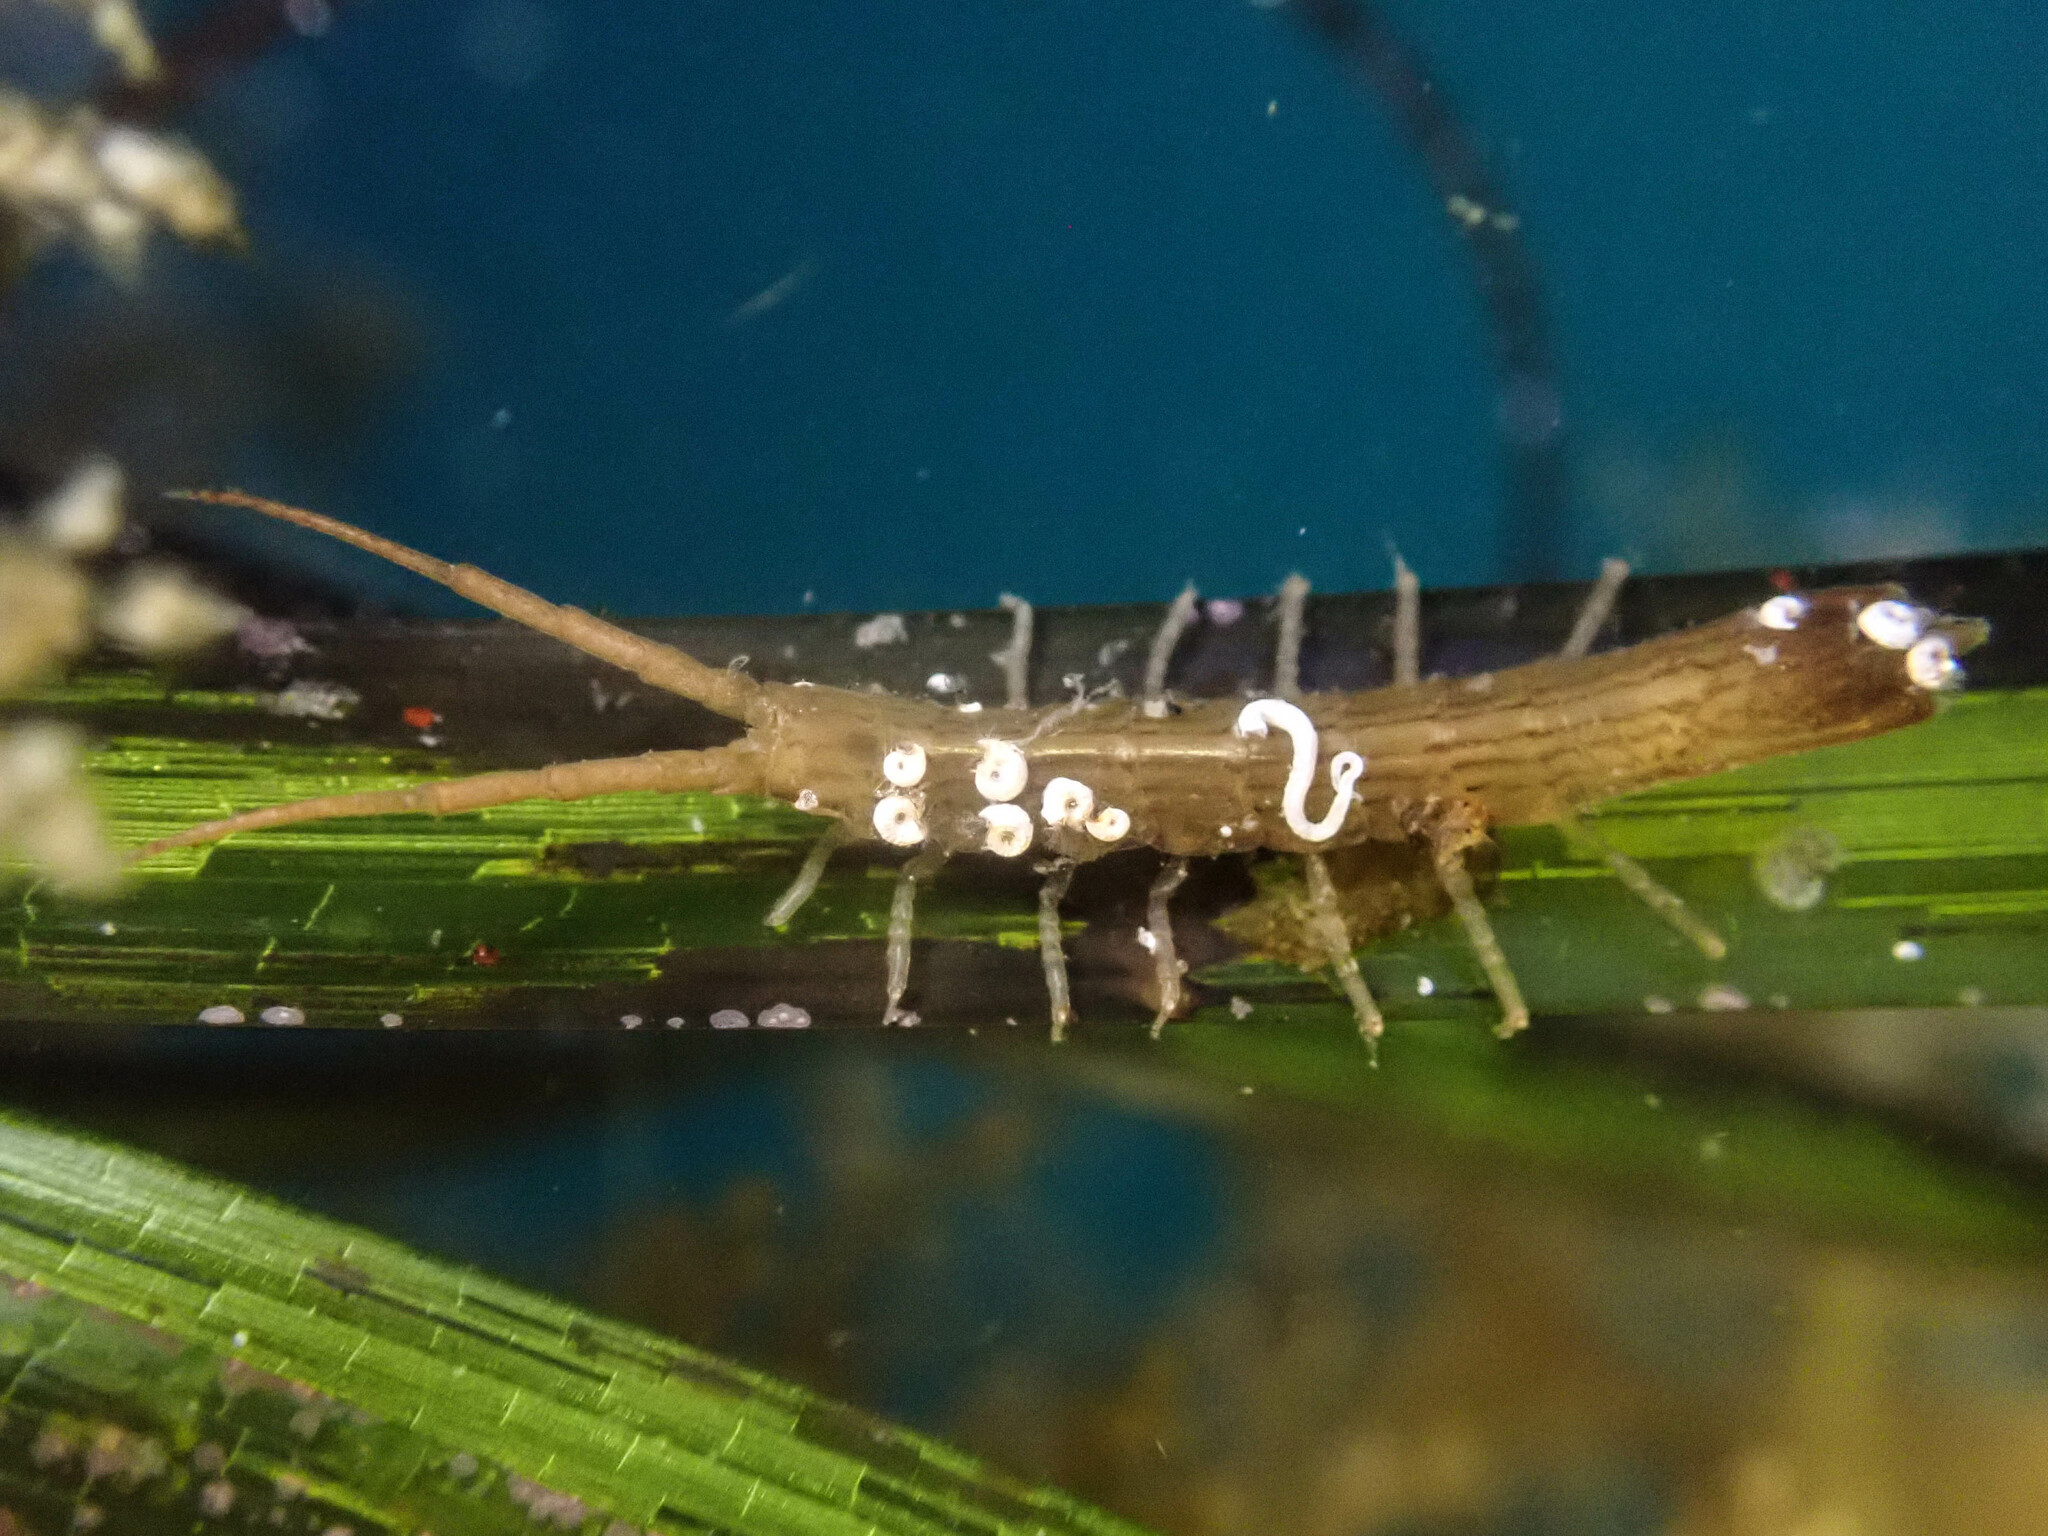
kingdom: Animalia
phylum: Arthropoda
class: Malacostraca
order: Isopoda
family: Idoteidae
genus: Idotea
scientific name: Idotea fewkesi
